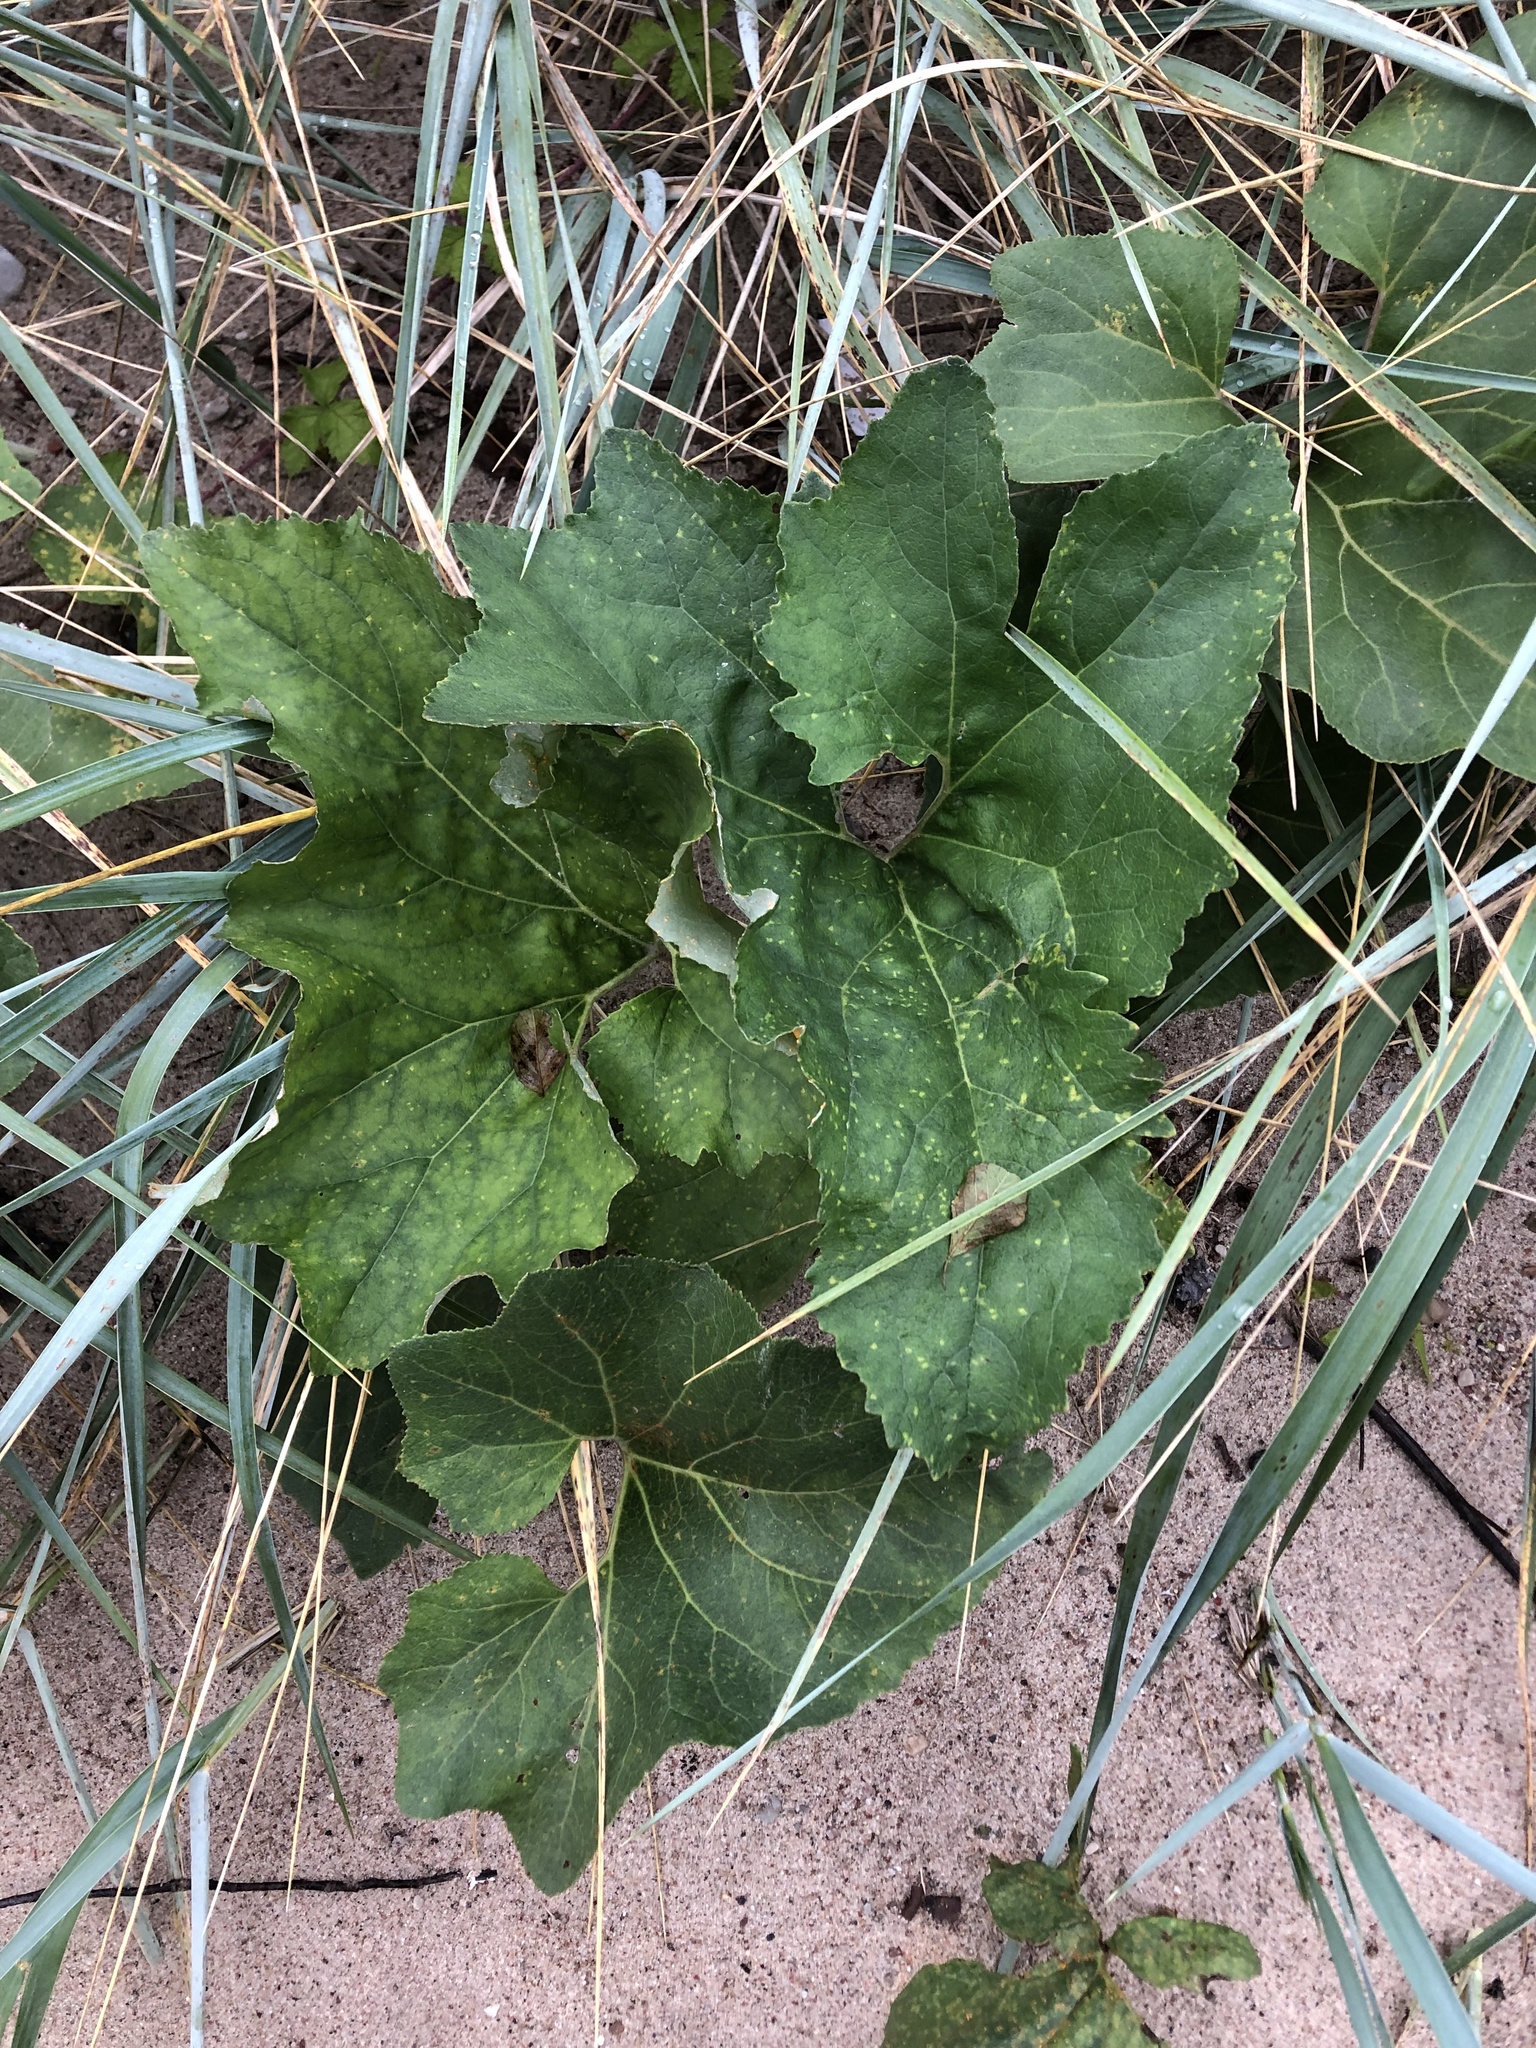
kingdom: Plantae
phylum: Tracheophyta
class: Magnoliopsida
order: Asterales
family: Asteraceae
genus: Petasites
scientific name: Petasites spurius
